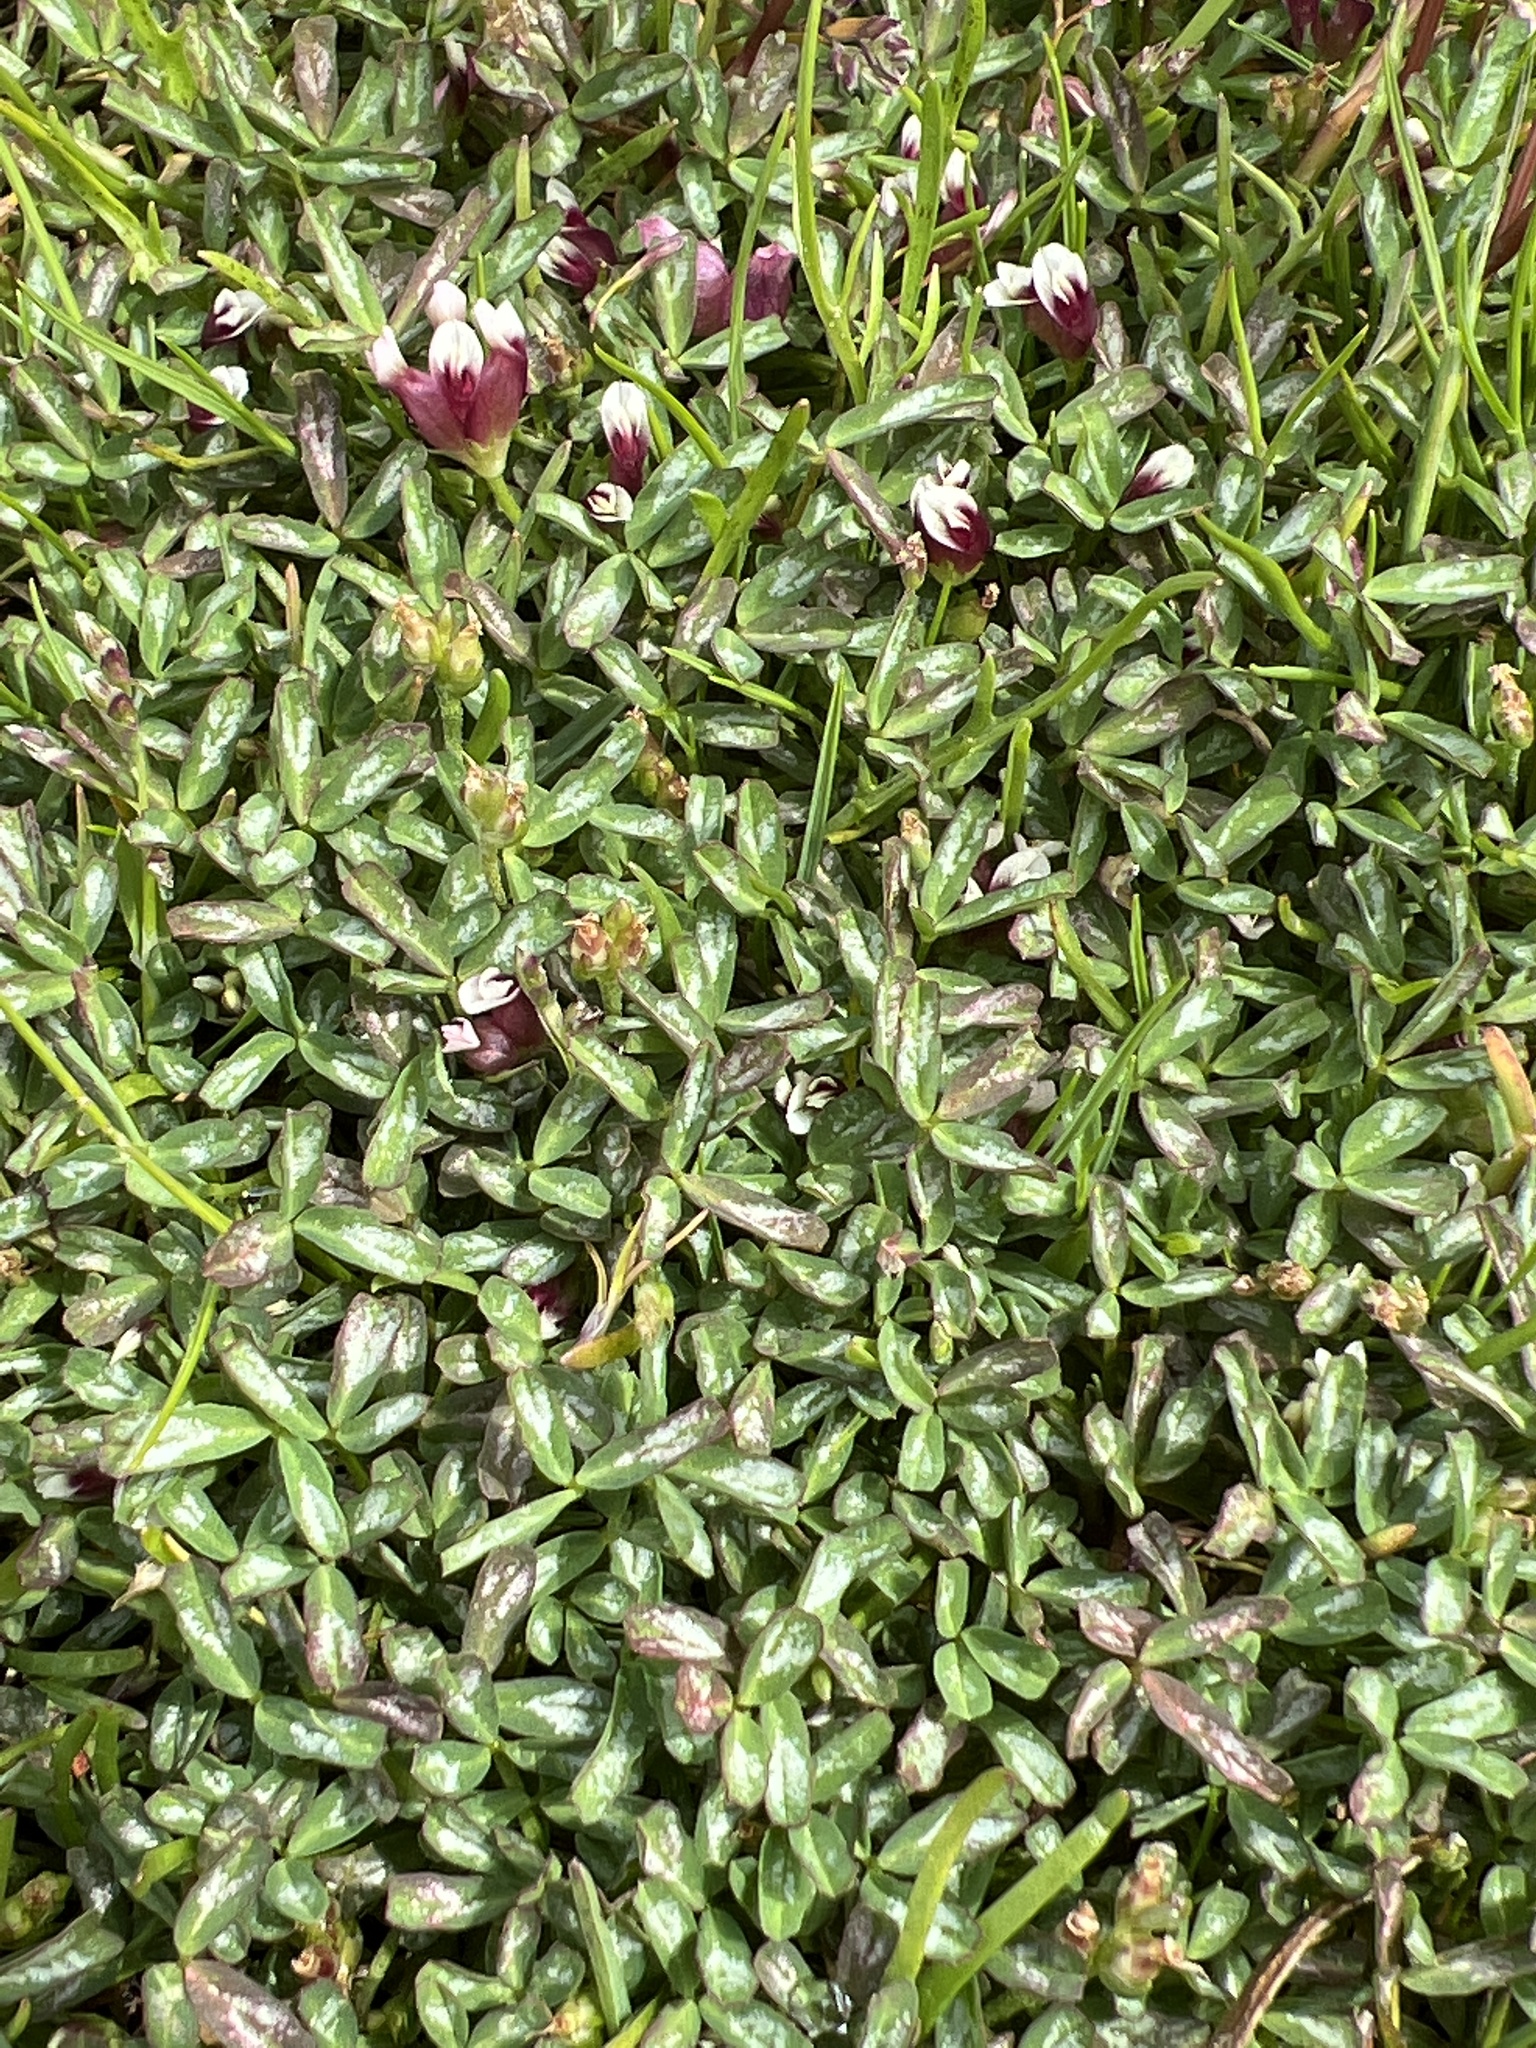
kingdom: Plantae
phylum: Tracheophyta
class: Magnoliopsida
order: Fabales
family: Fabaceae
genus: Trifolium
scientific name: Trifolium depauperatum
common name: Poverty clover
